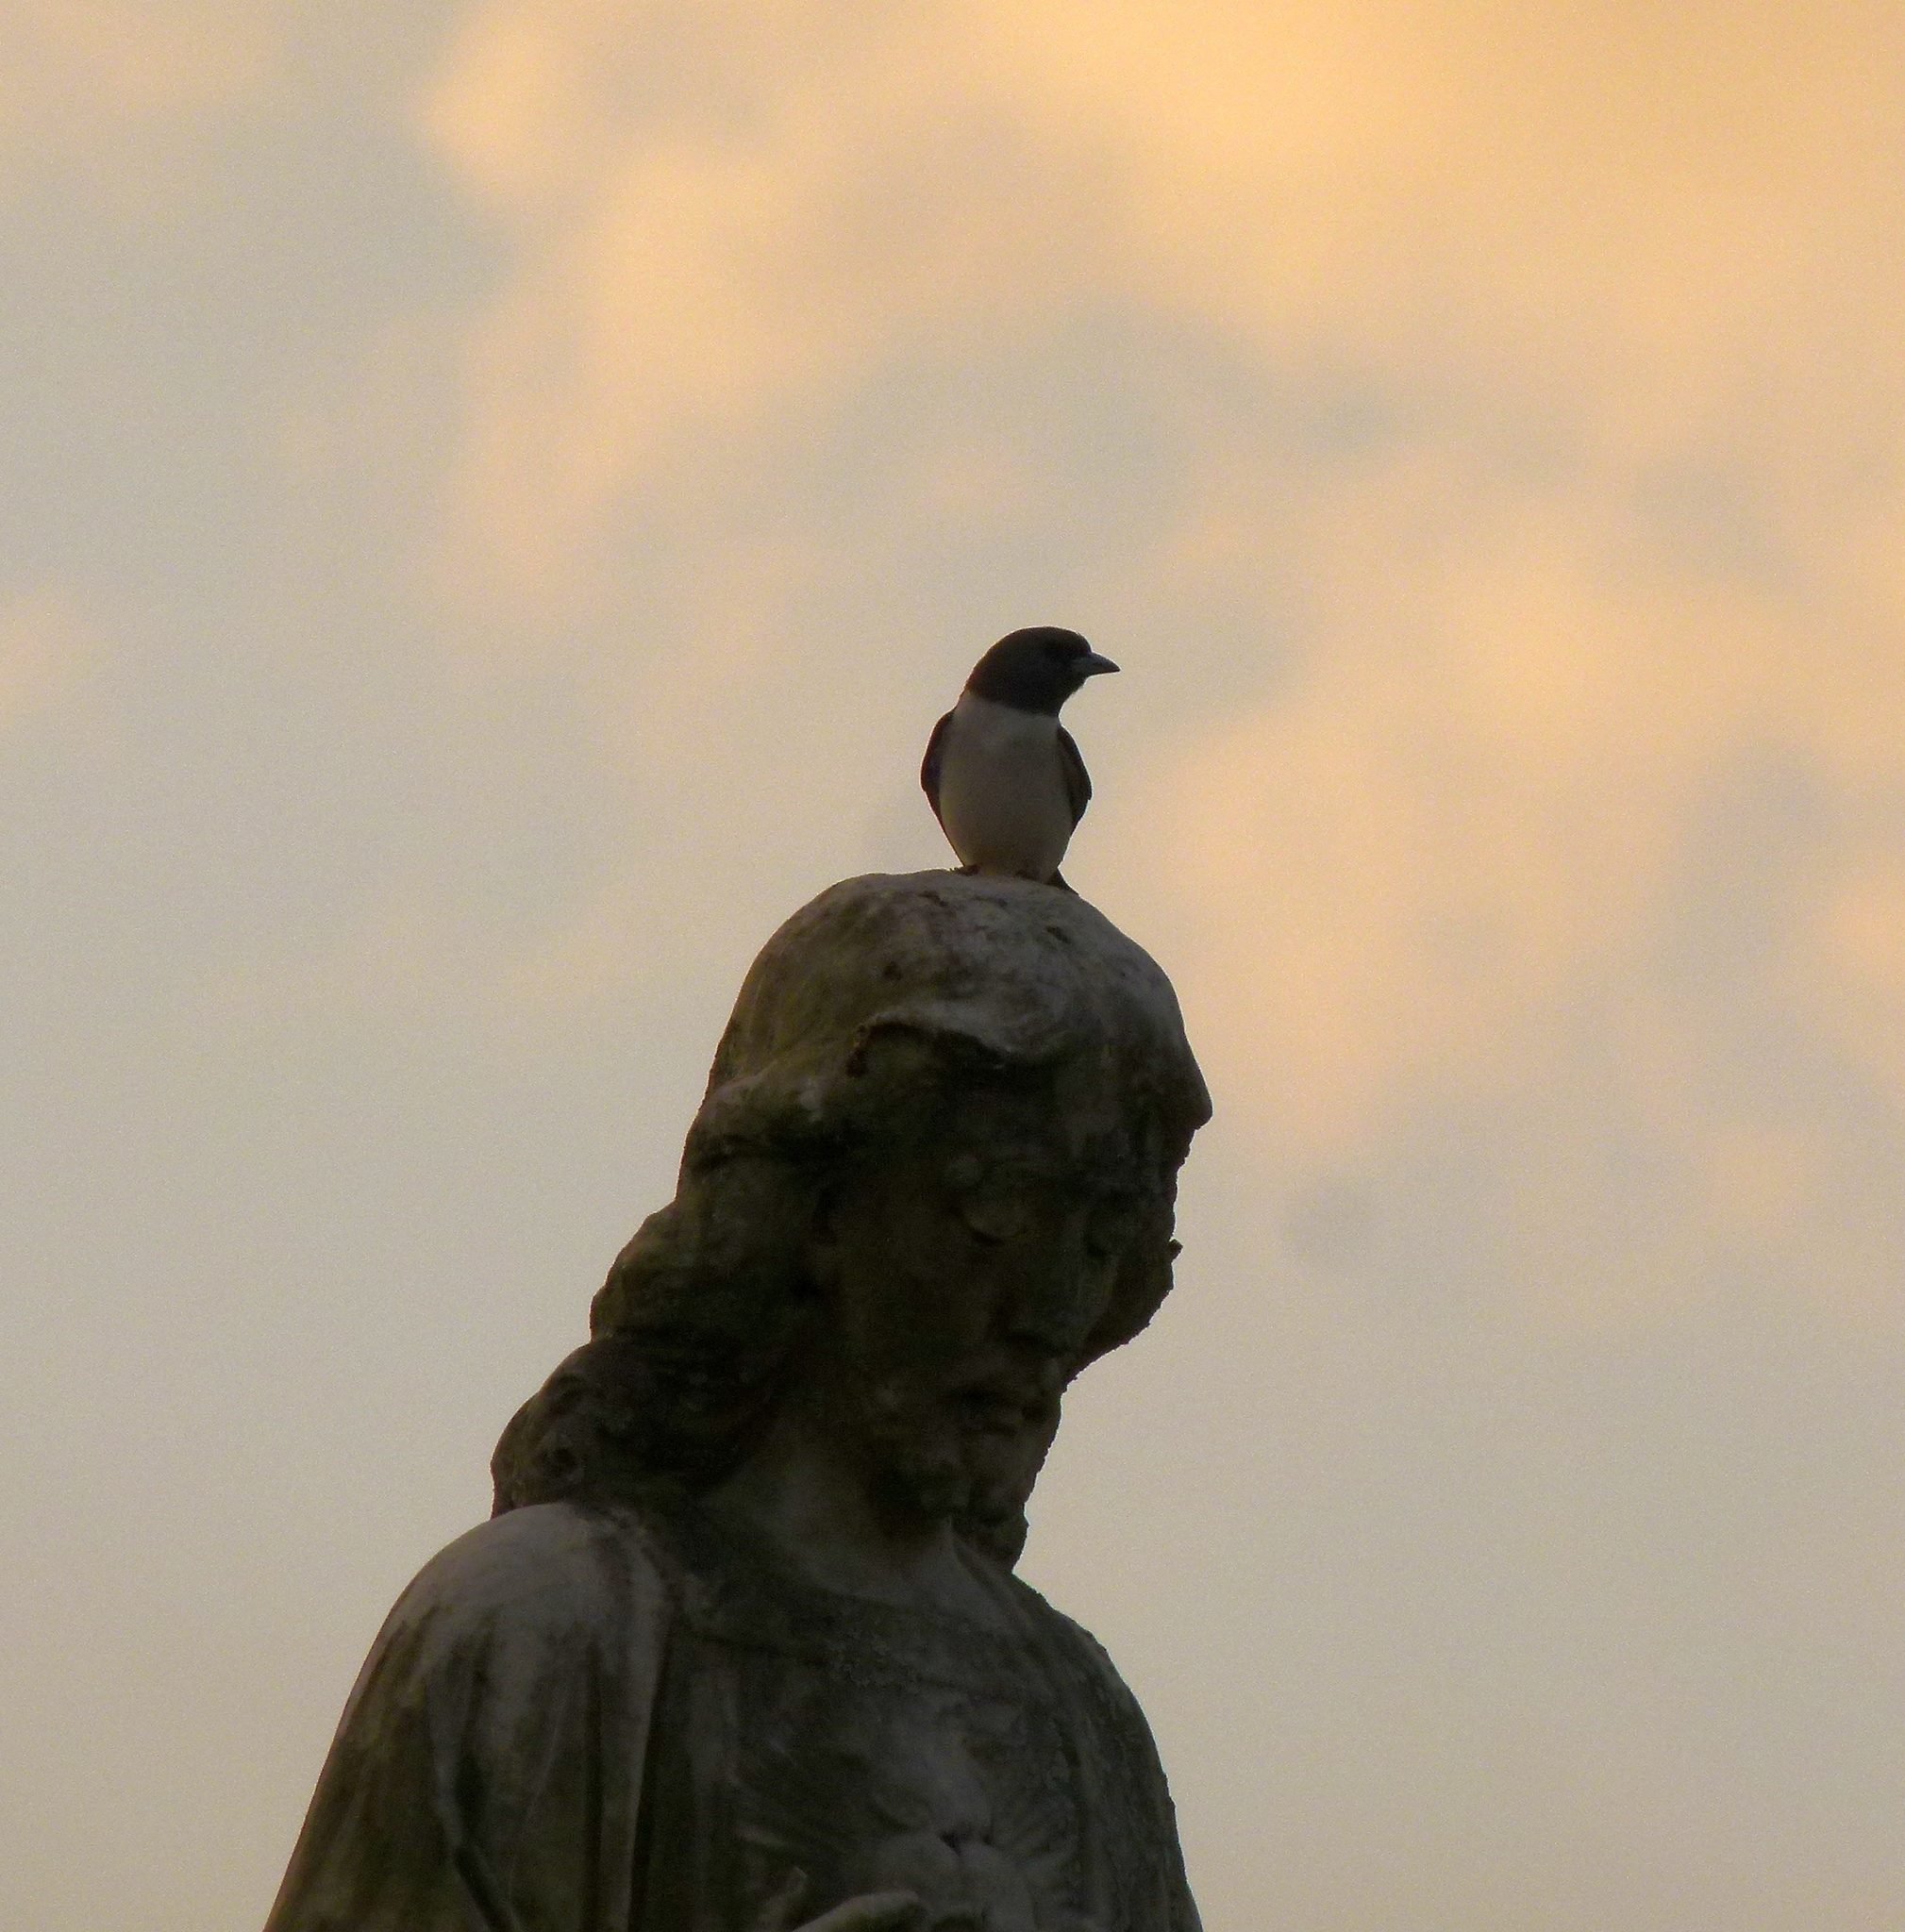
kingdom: Animalia
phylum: Chordata
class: Aves
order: Passeriformes
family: Artamidae
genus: Artamus
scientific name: Artamus leucoryn
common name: White-breasted woodswallow
